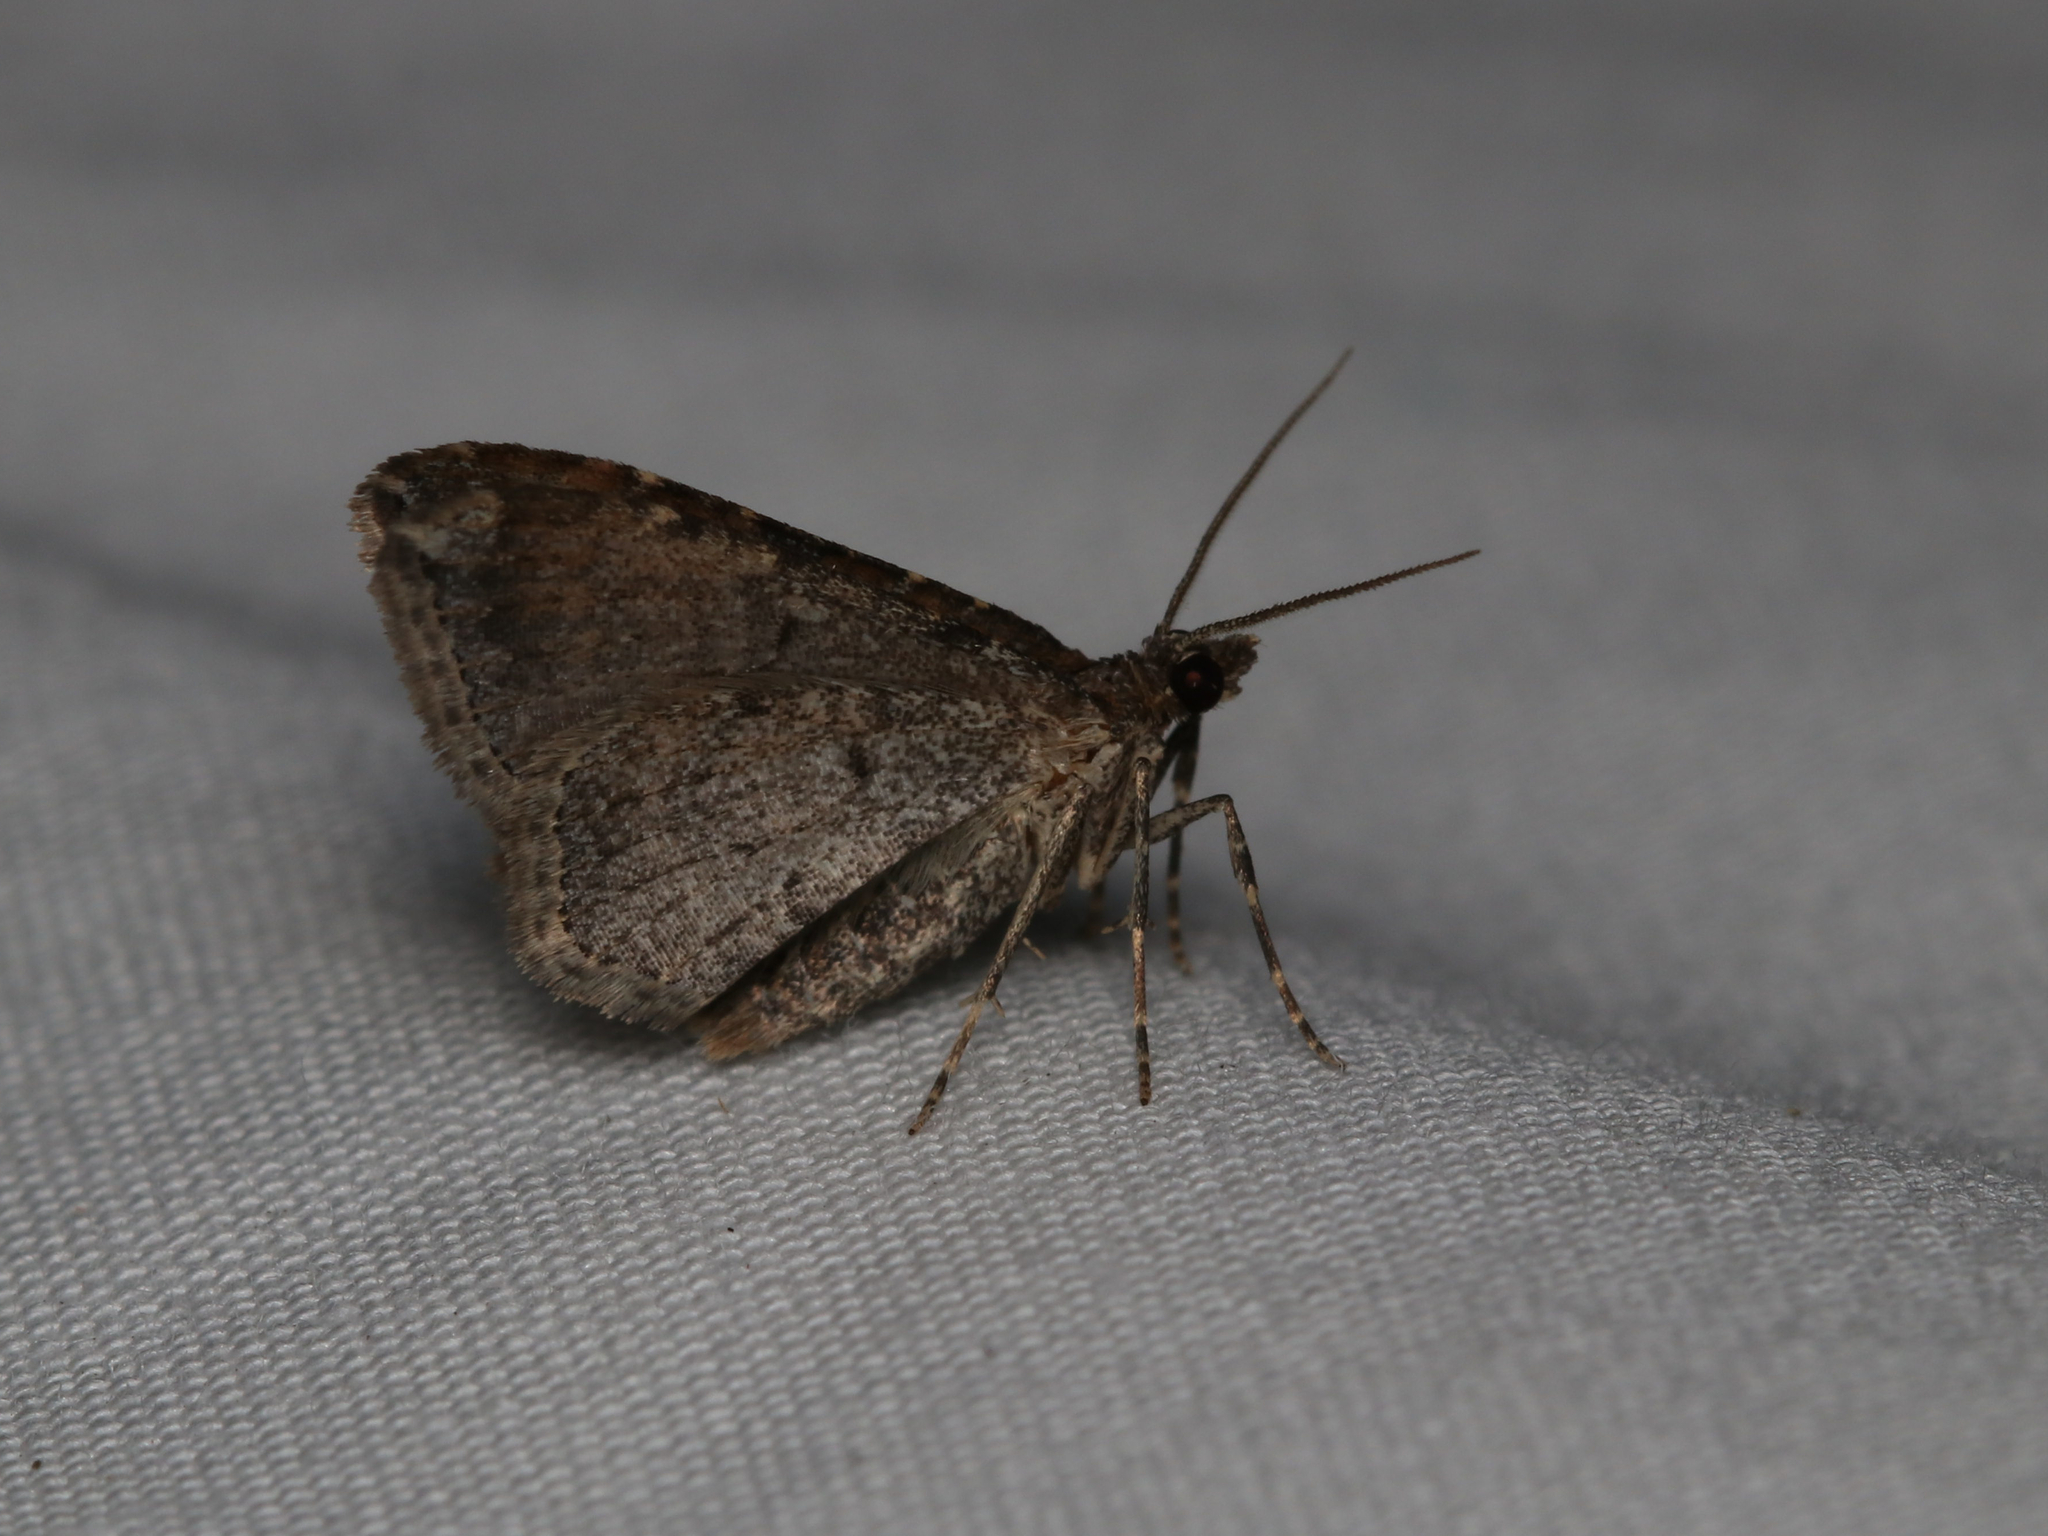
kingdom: Animalia
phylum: Arthropoda
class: Insecta
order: Lepidoptera
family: Geometridae
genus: Orthonama
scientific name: Orthonama obstipata
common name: The gem
